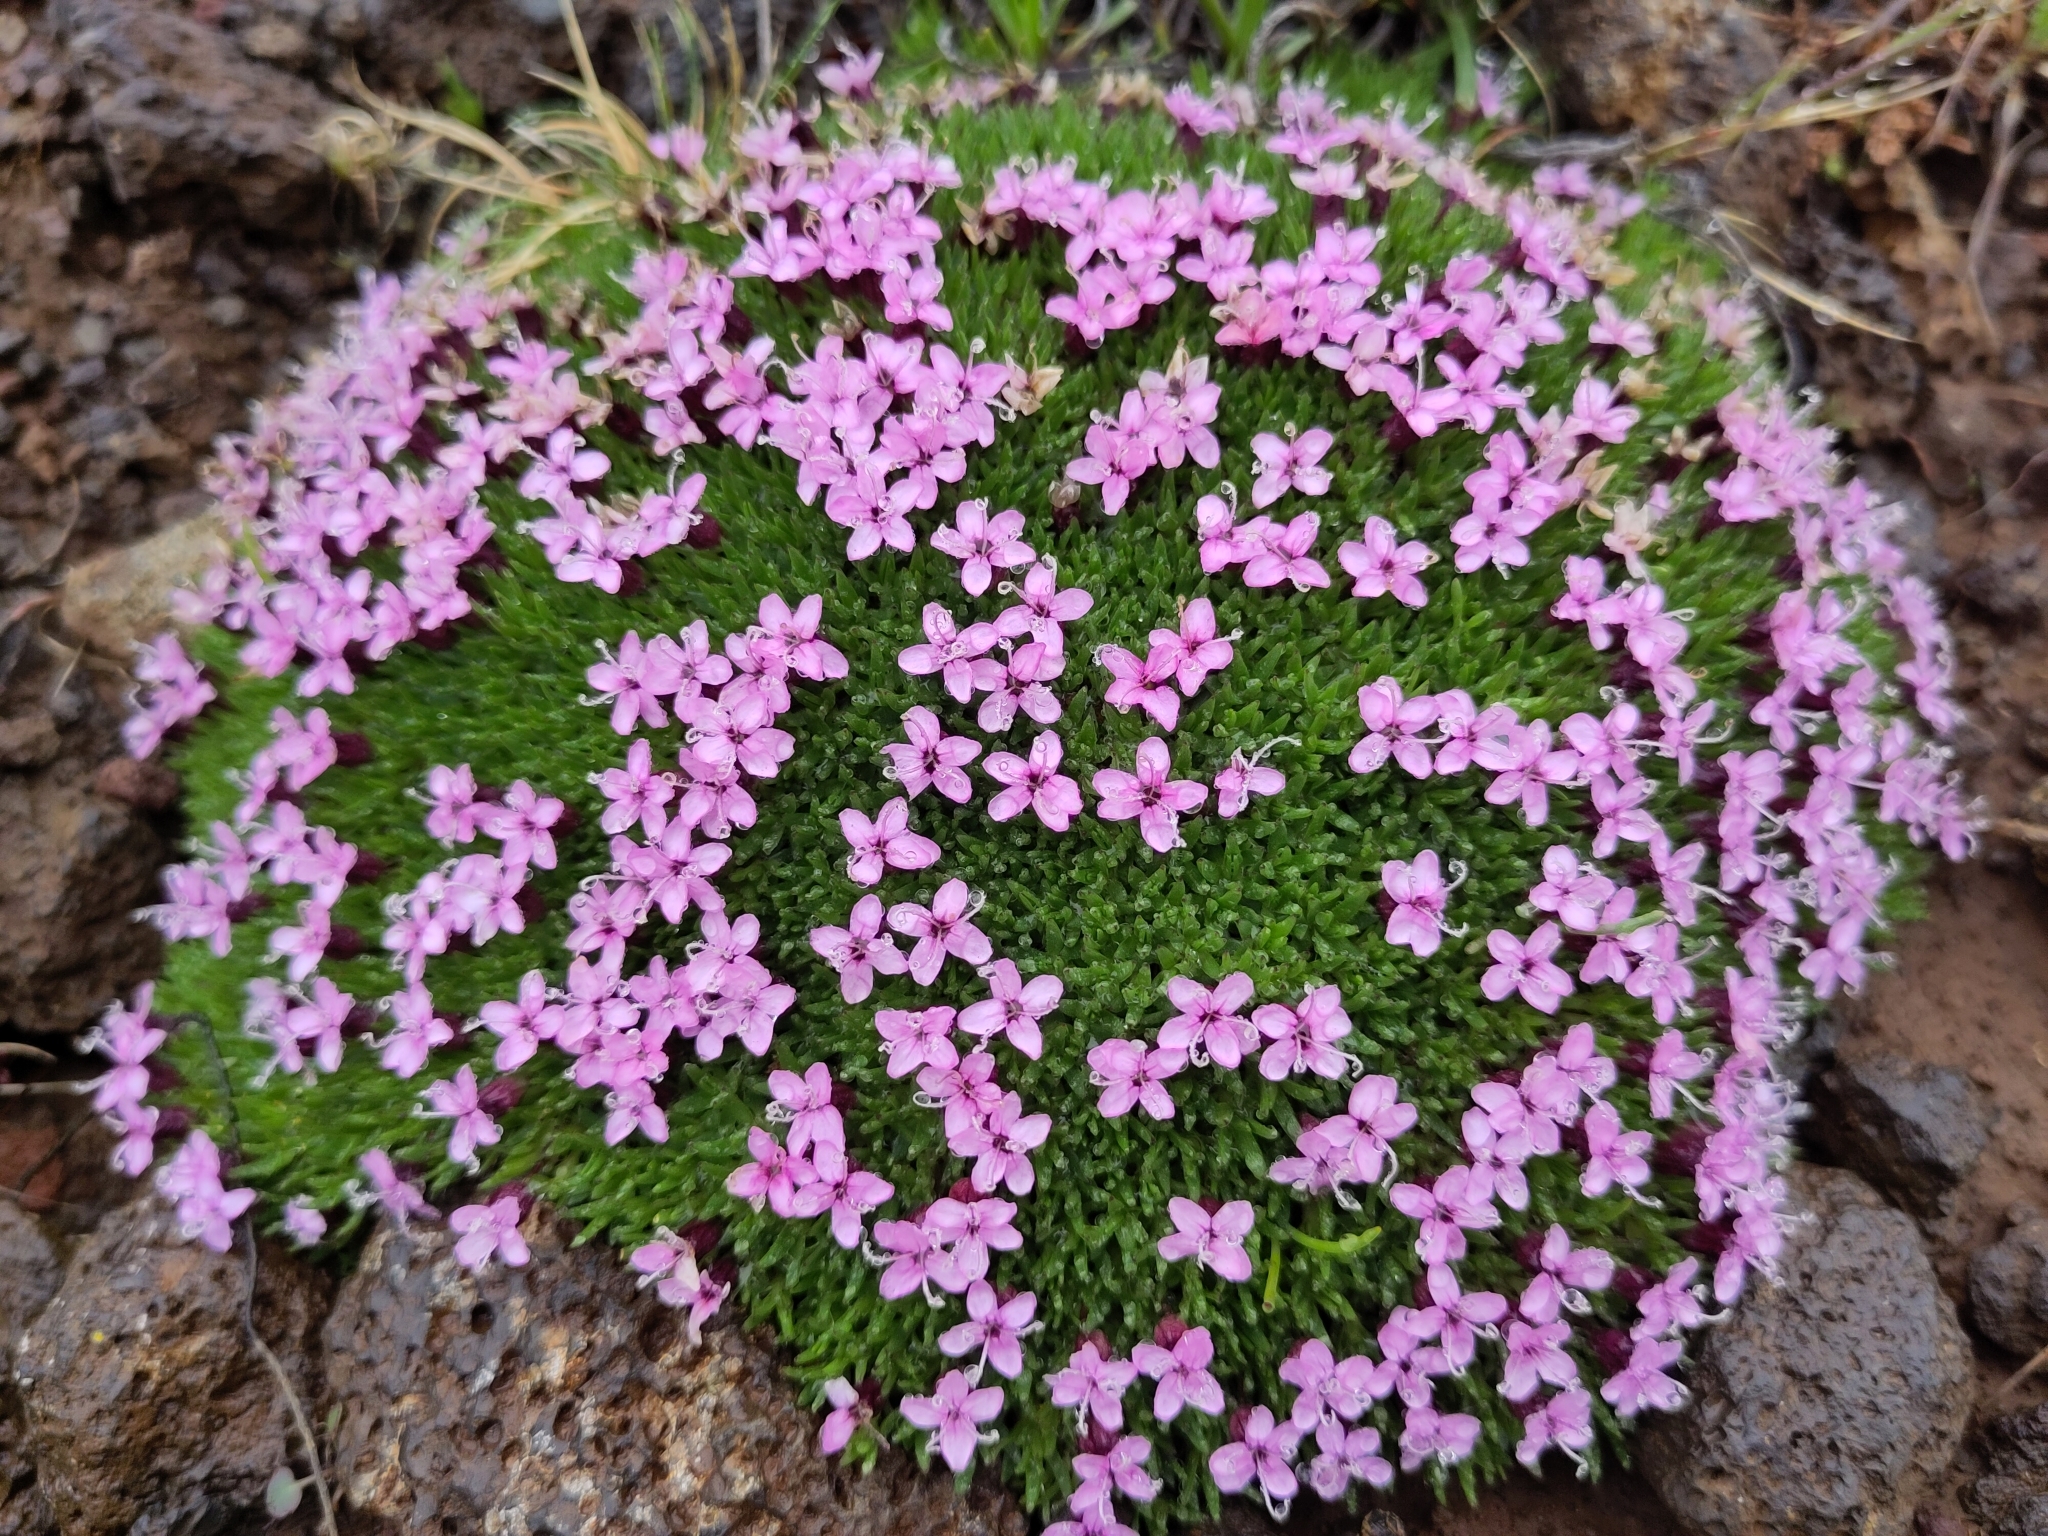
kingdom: Plantae
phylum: Tracheophyta
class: Magnoliopsida
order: Caryophyllales
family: Caryophyllaceae
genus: Silene
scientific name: Silene acaulis
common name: Moss campion
